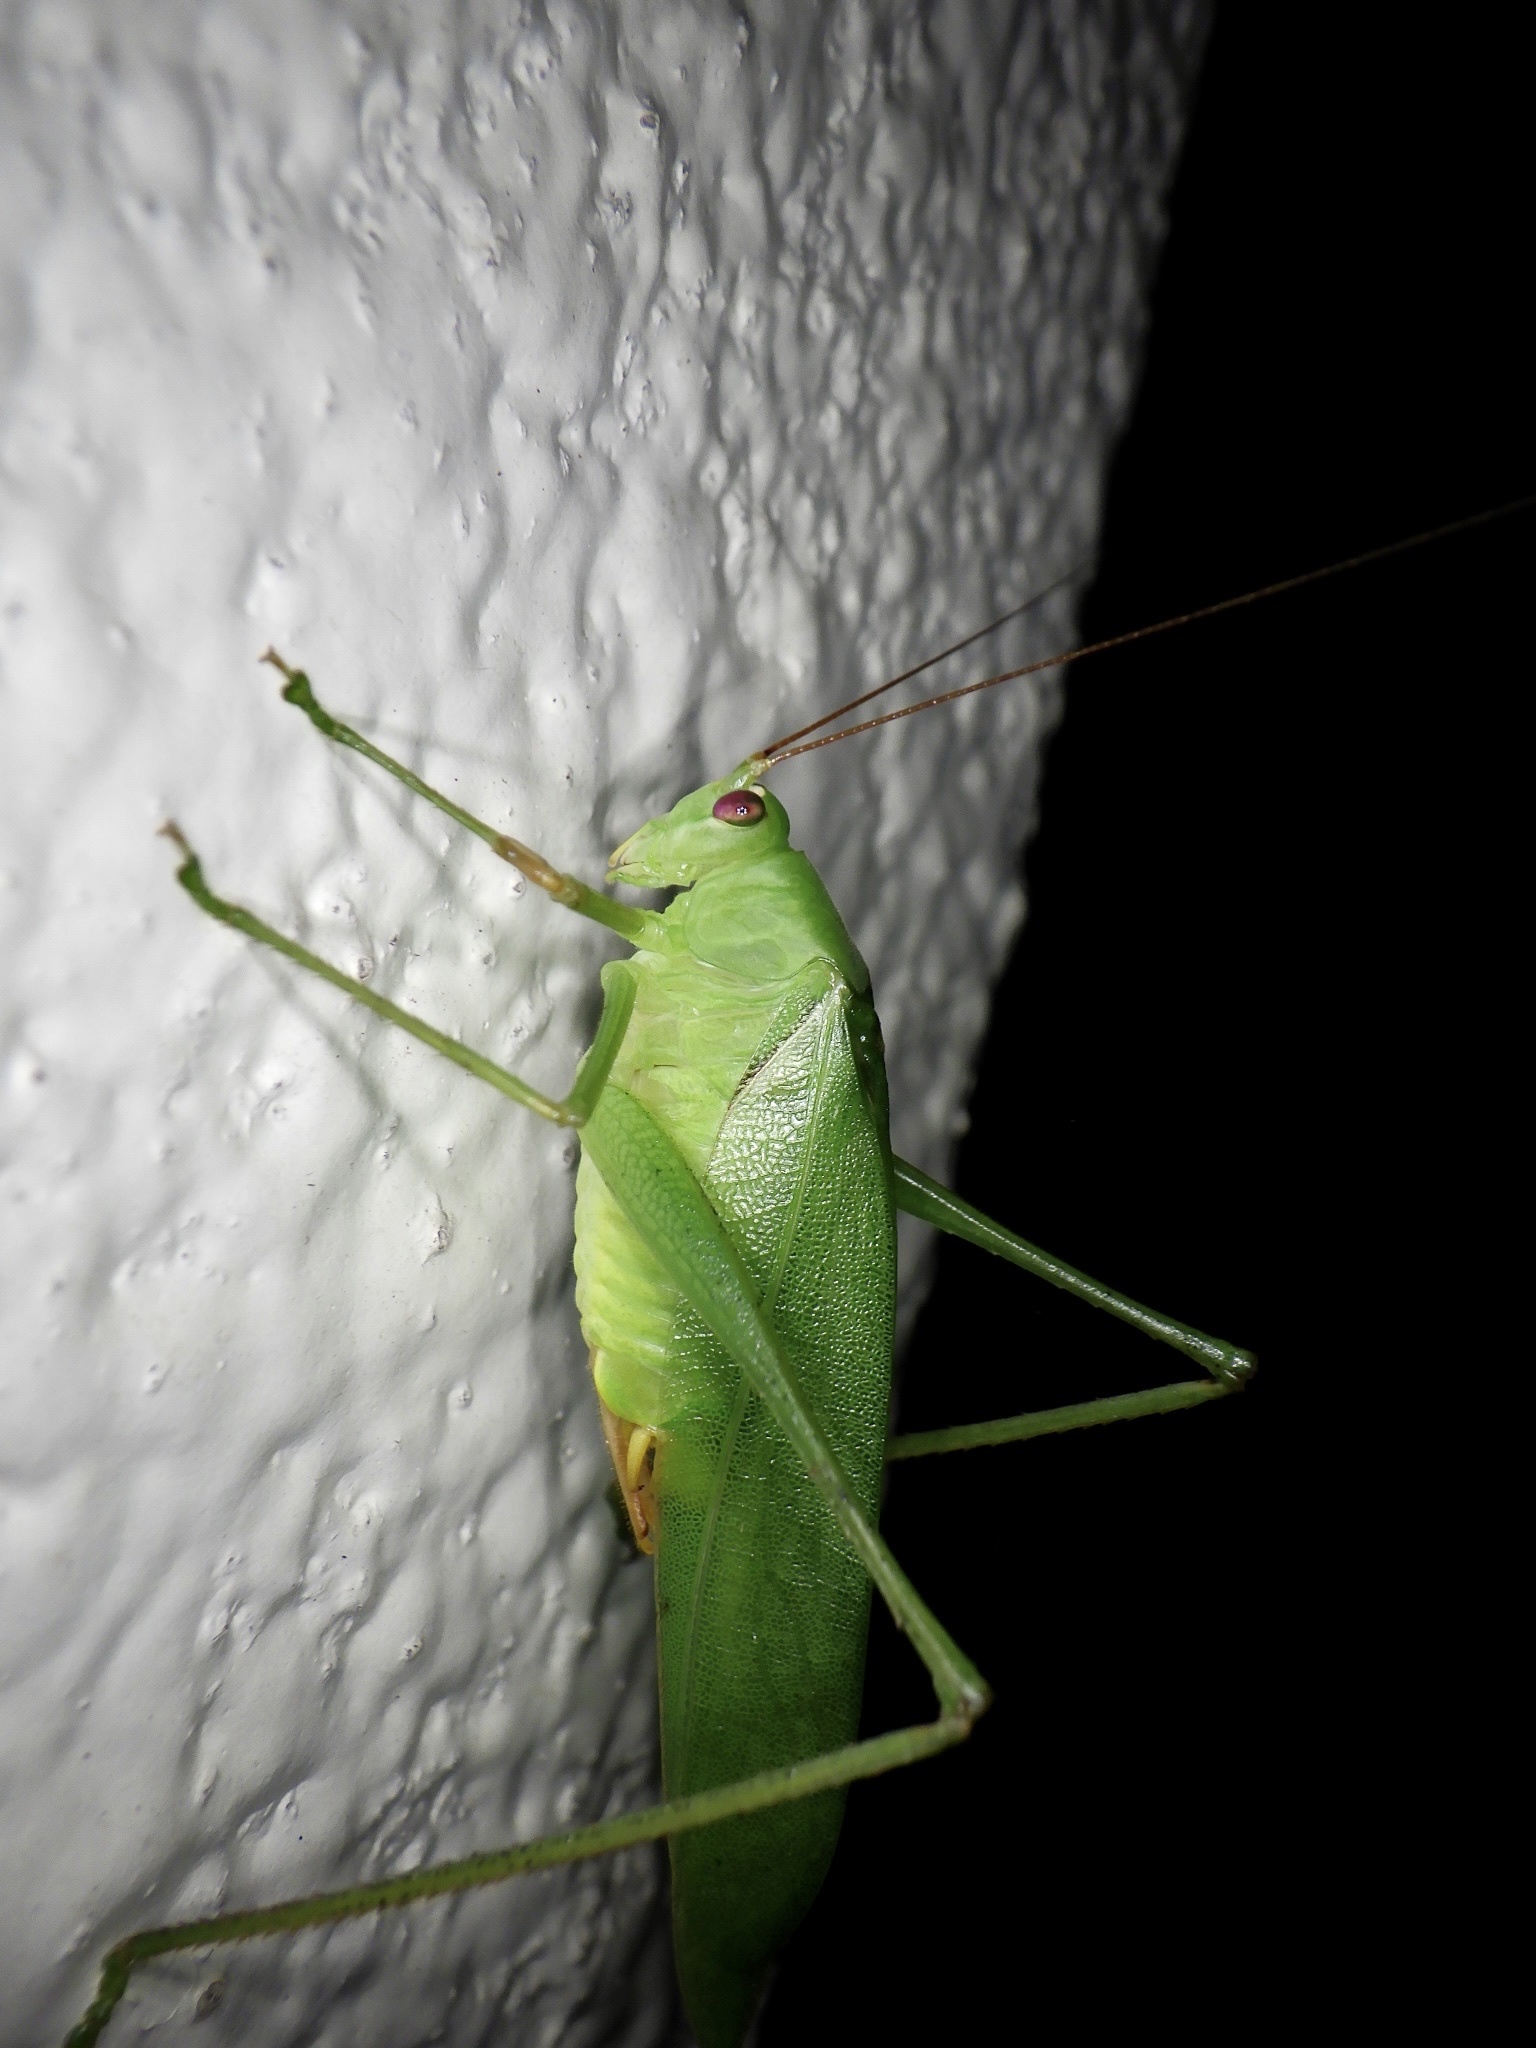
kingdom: Animalia
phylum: Arthropoda
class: Insecta
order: Orthoptera
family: Tettigoniidae
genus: Holochlora
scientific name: Holochlora japonica
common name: Japanese broadwinged katydid
